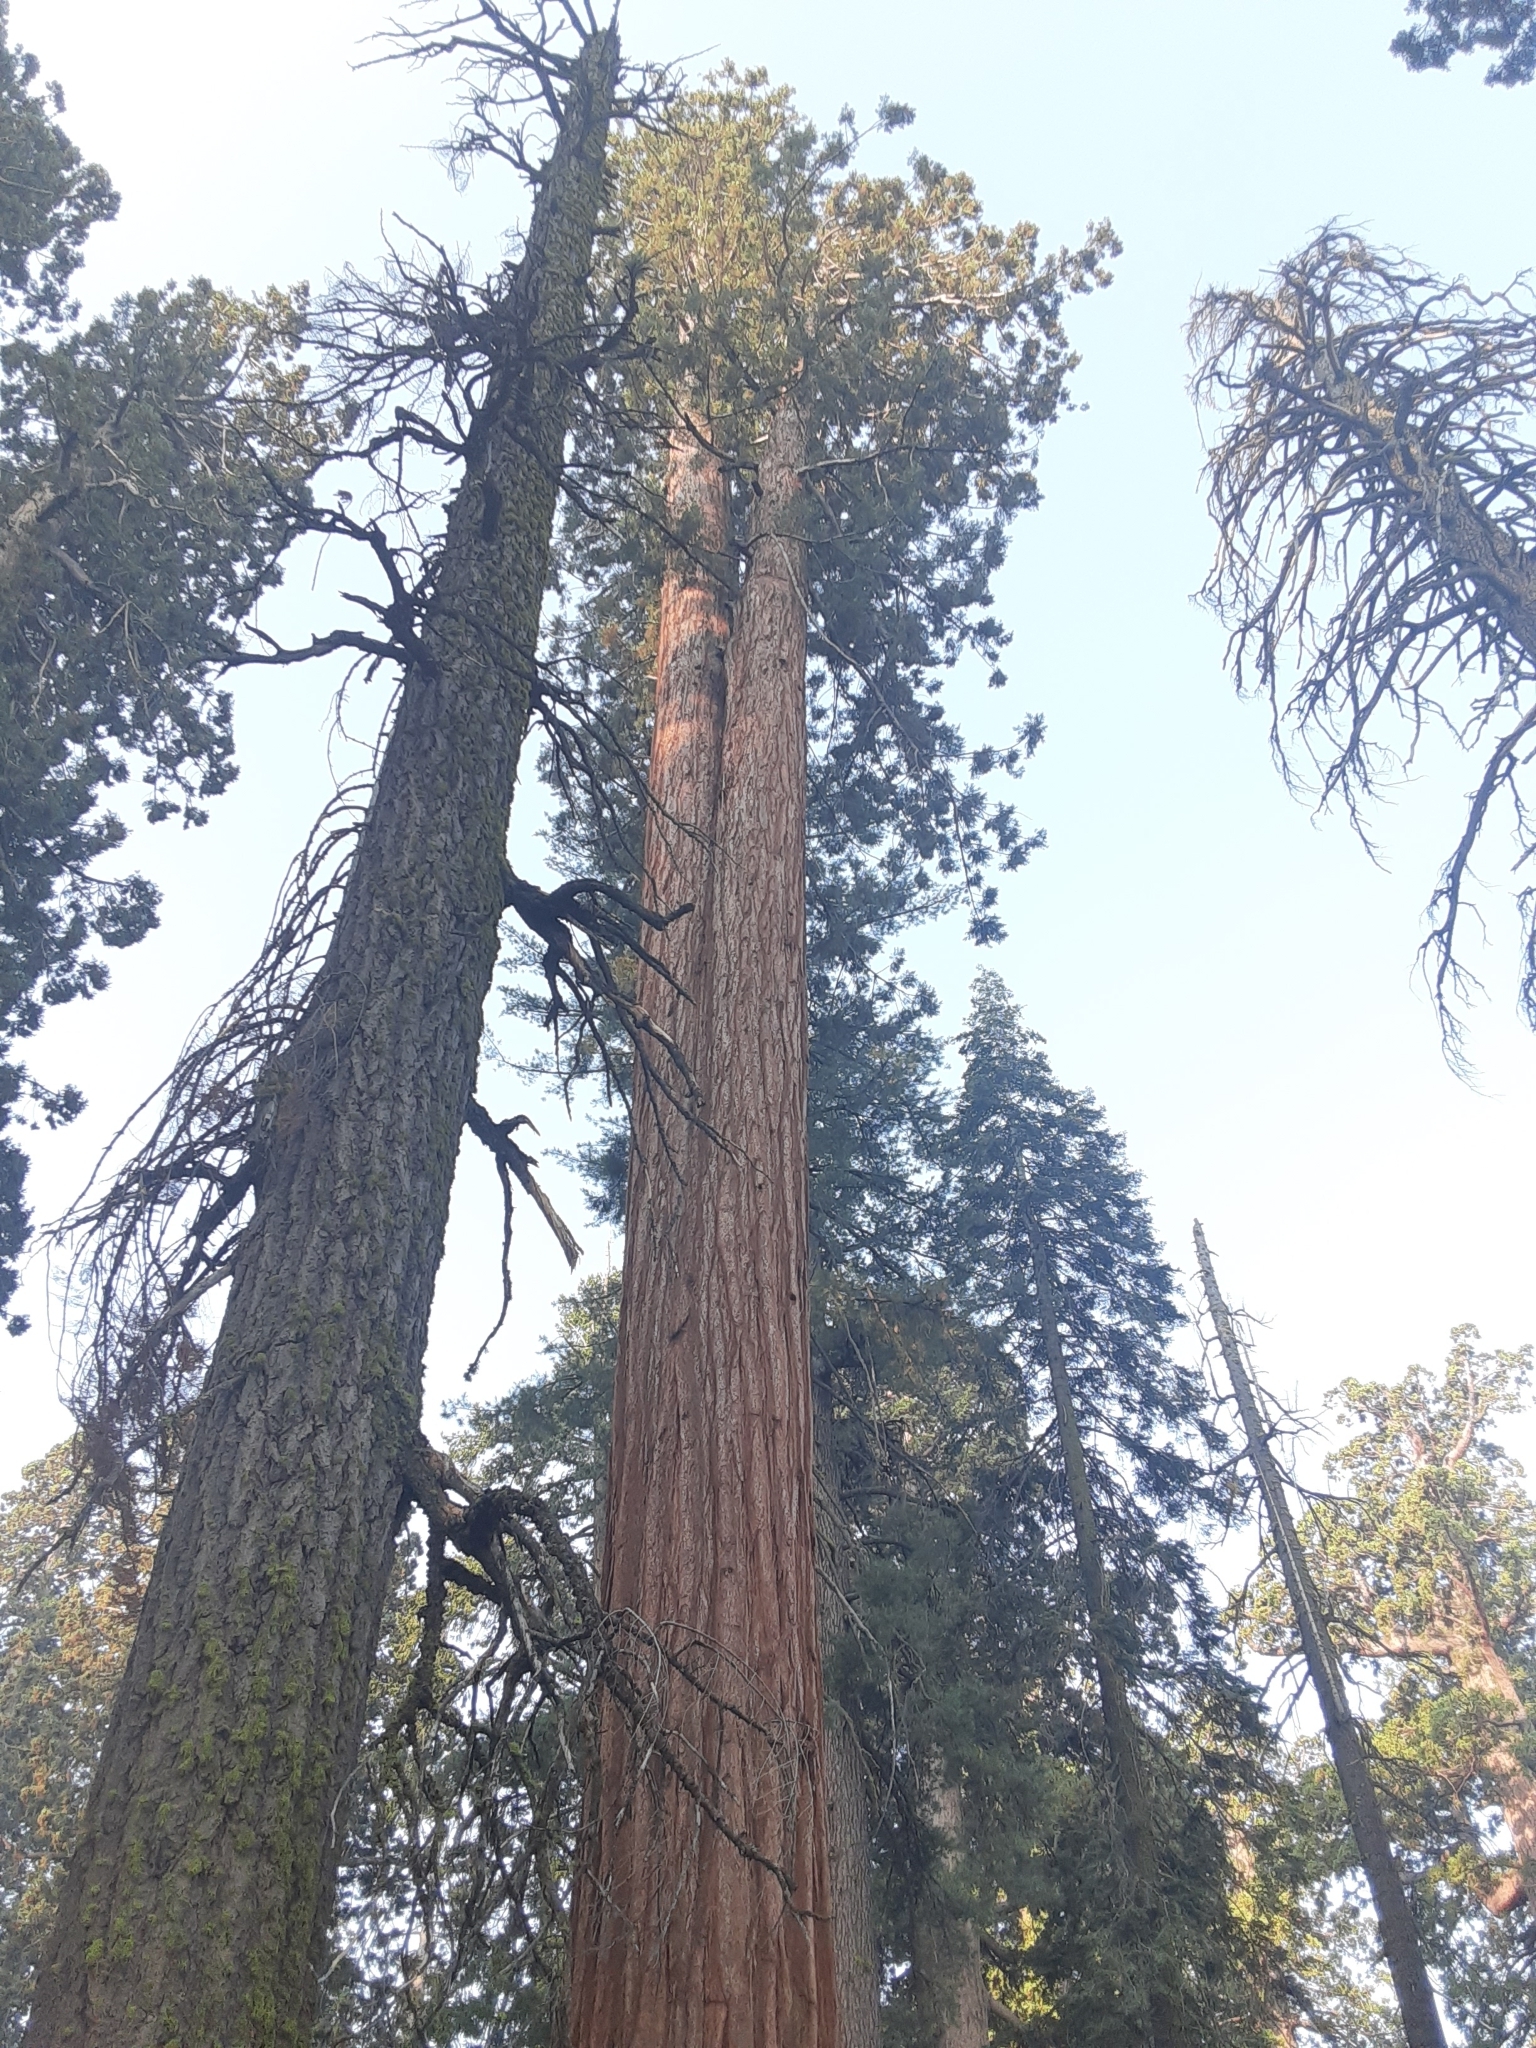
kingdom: Plantae
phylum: Tracheophyta
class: Pinopsida
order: Pinales
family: Cupressaceae
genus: Sequoiadendron
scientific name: Sequoiadendron giganteum
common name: Wellingtonia
